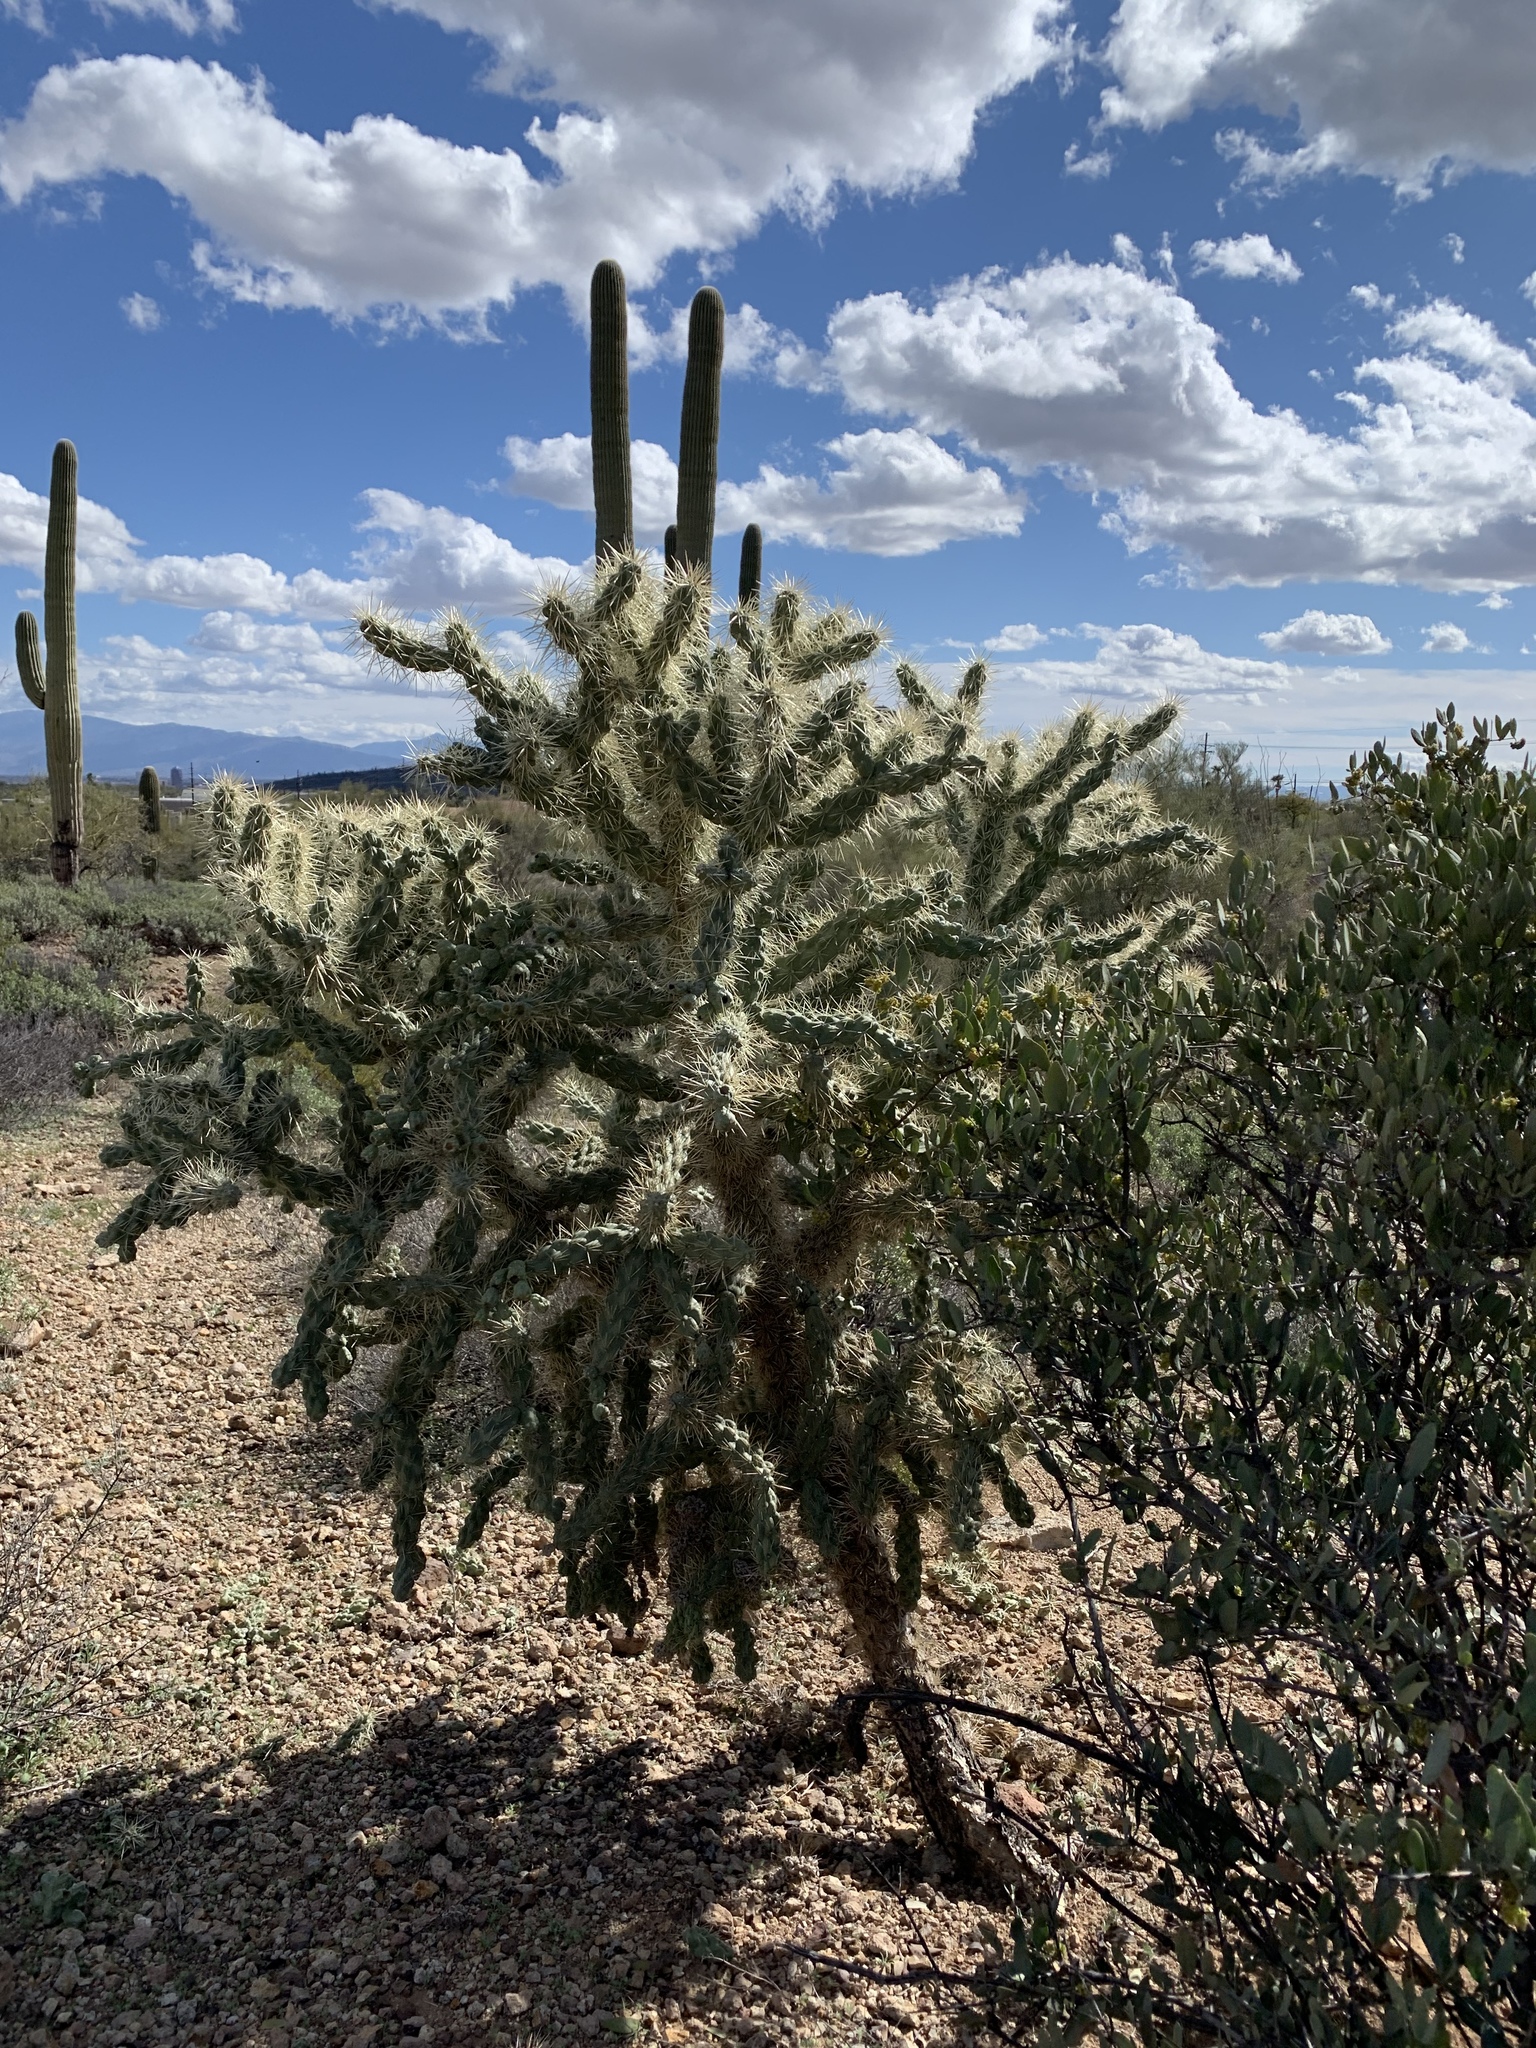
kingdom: Plantae
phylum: Tracheophyta
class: Magnoliopsida
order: Caryophyllales
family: Cactaceae
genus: Cylindropuntia
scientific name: Cylindropuntia fulgida
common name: Jumping cholla
